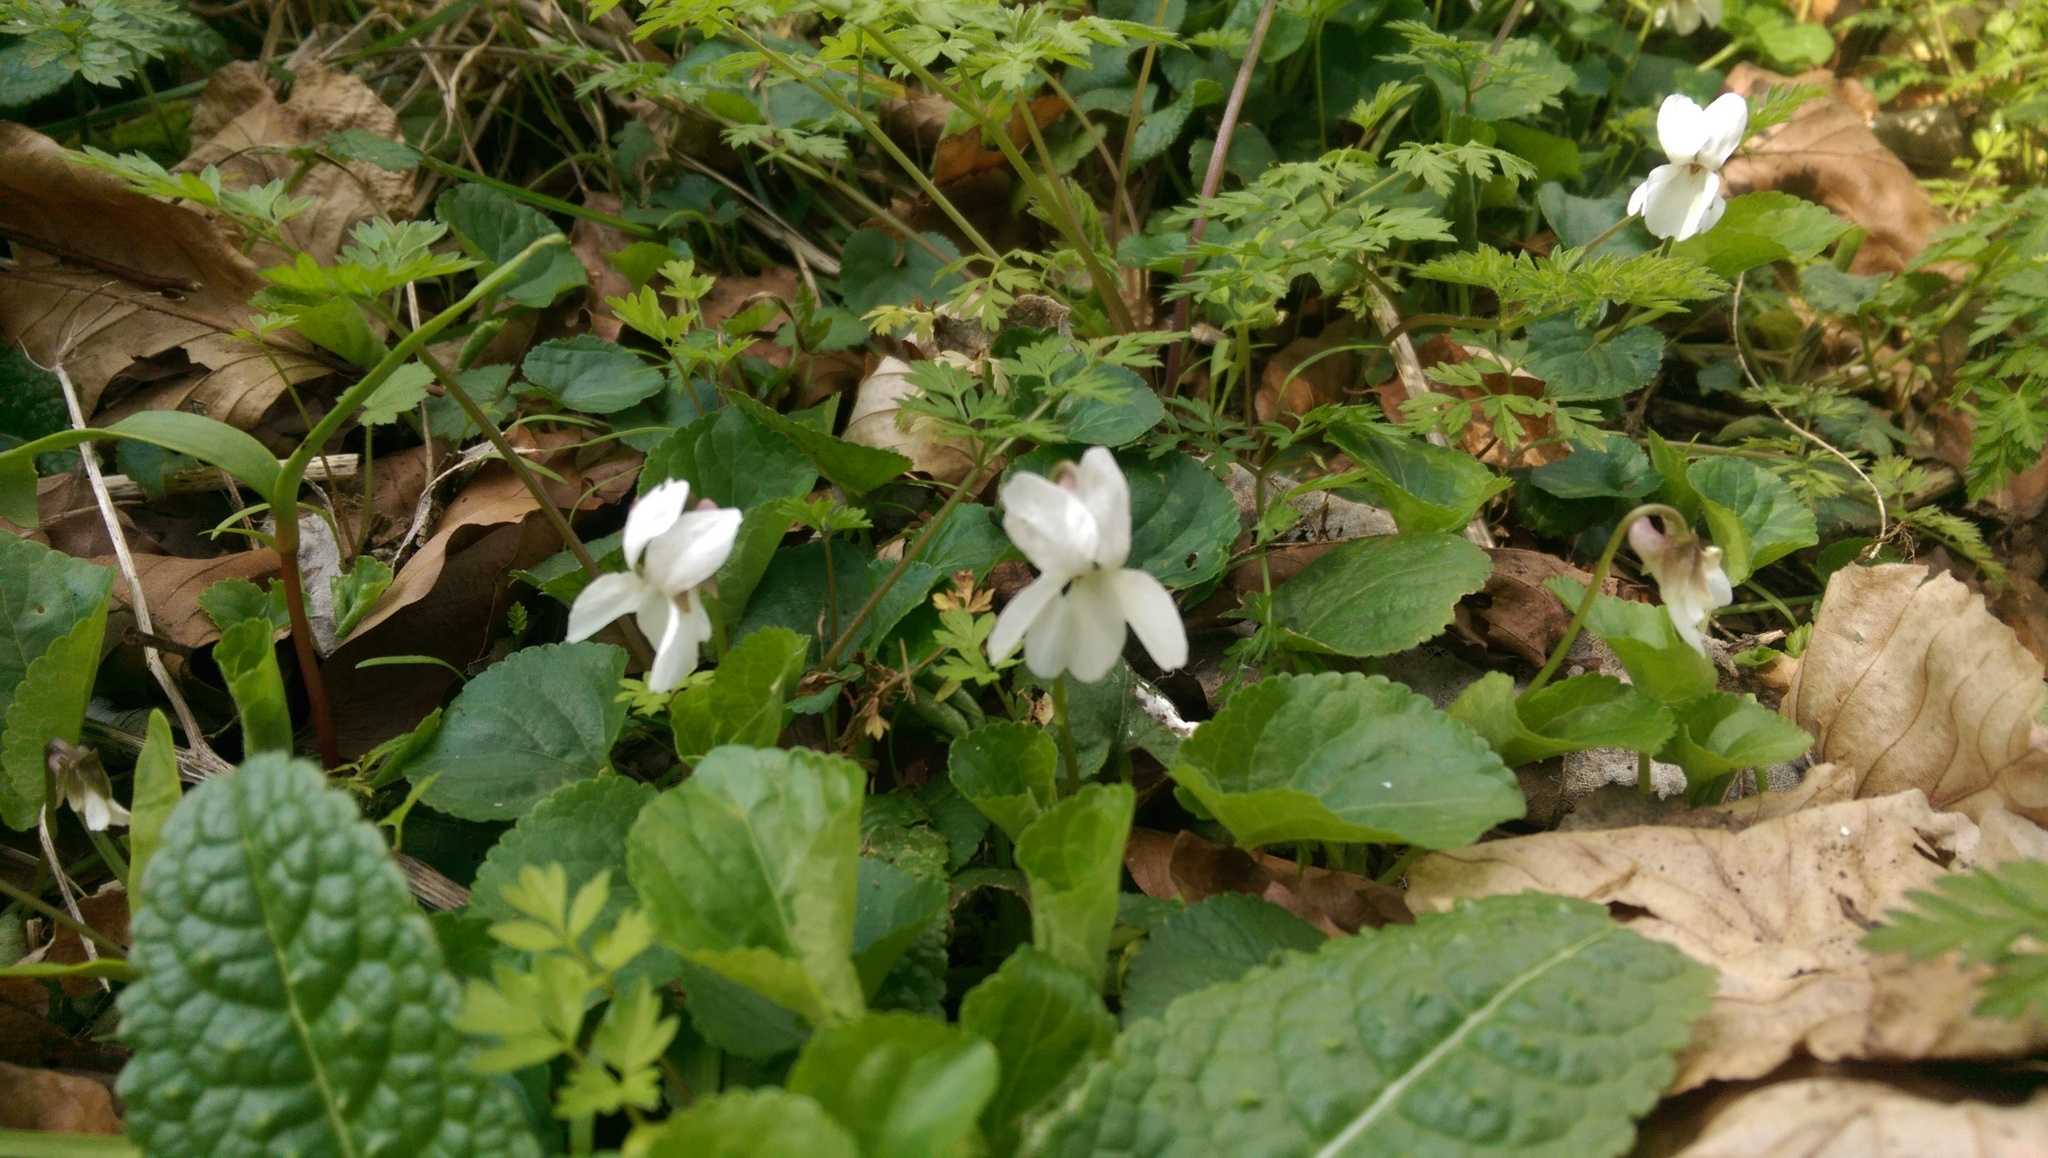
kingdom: Plantae
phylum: Tracheophyta
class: Magnoliopsida
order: Malpighiales
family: Violaceae
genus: Viola
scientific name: Viola odorata
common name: Sweet violet
